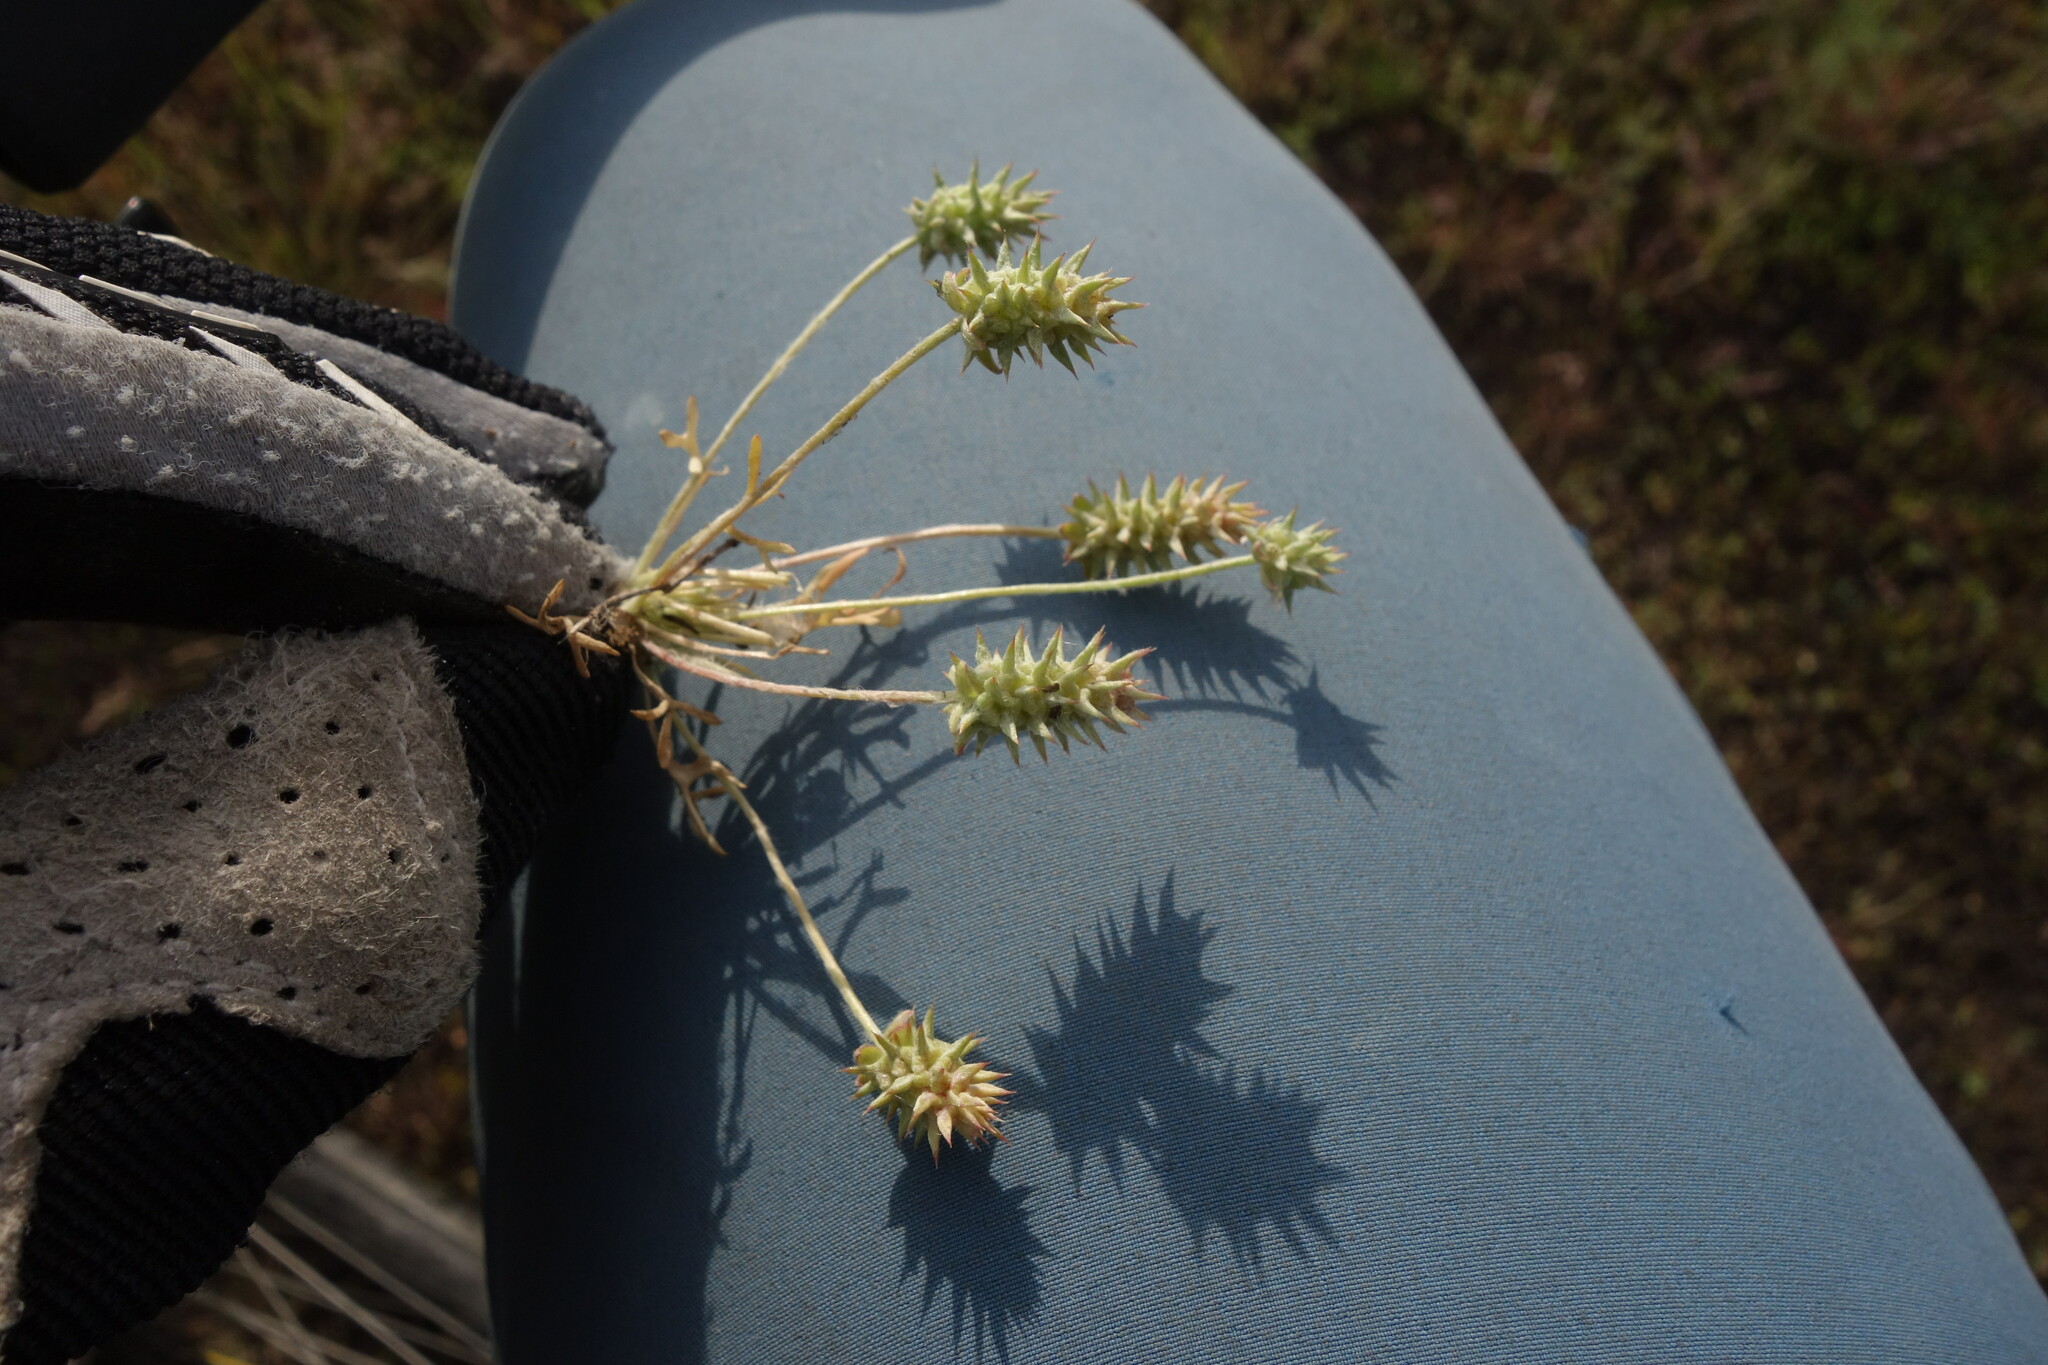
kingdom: Plantae
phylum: Tracheophyta
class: Magnoliopsida
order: Ranunculales
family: Ranunculaceae
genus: Ceratocephala
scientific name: Ceratocephala orthoceras
